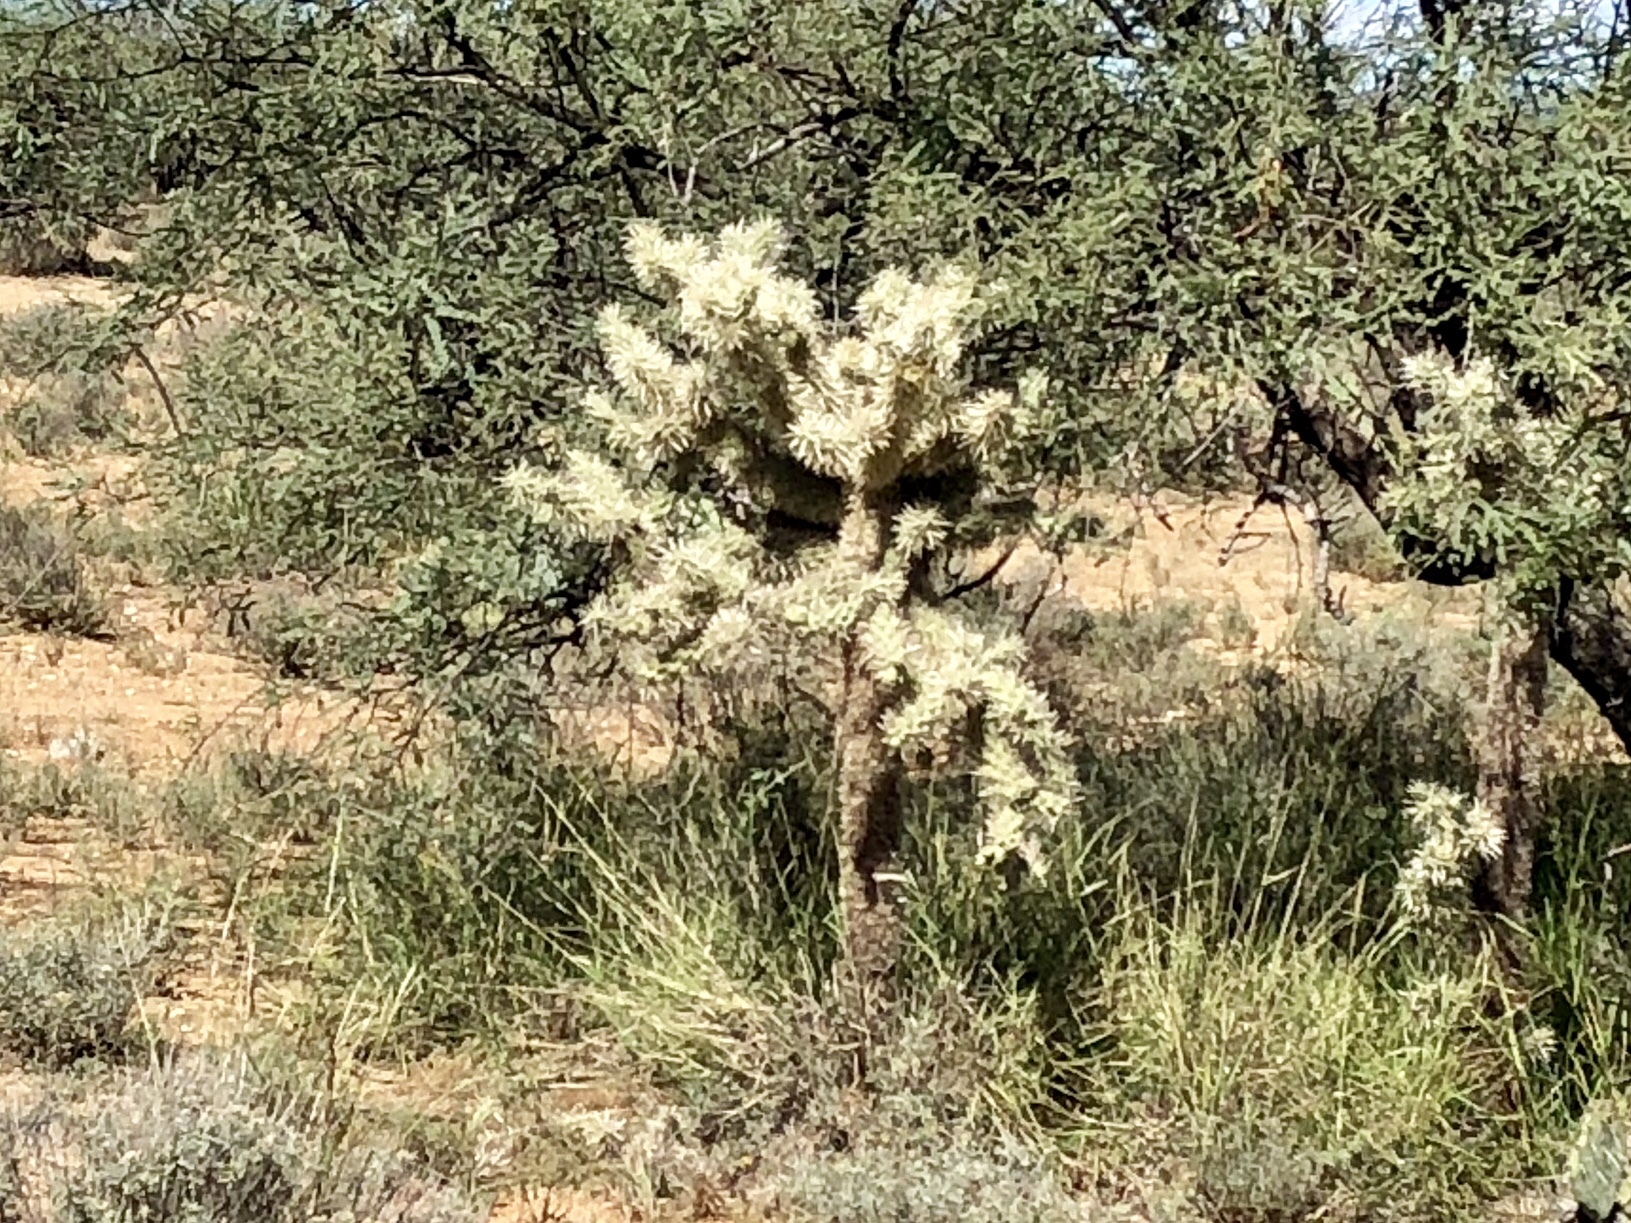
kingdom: Plantae
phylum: Tracheophyta
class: Magnoliopsida
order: Caryophyllales
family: Cactaceae
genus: Cylindropuntia
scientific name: Cylindropuntia fulgida
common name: Jumping cholla
